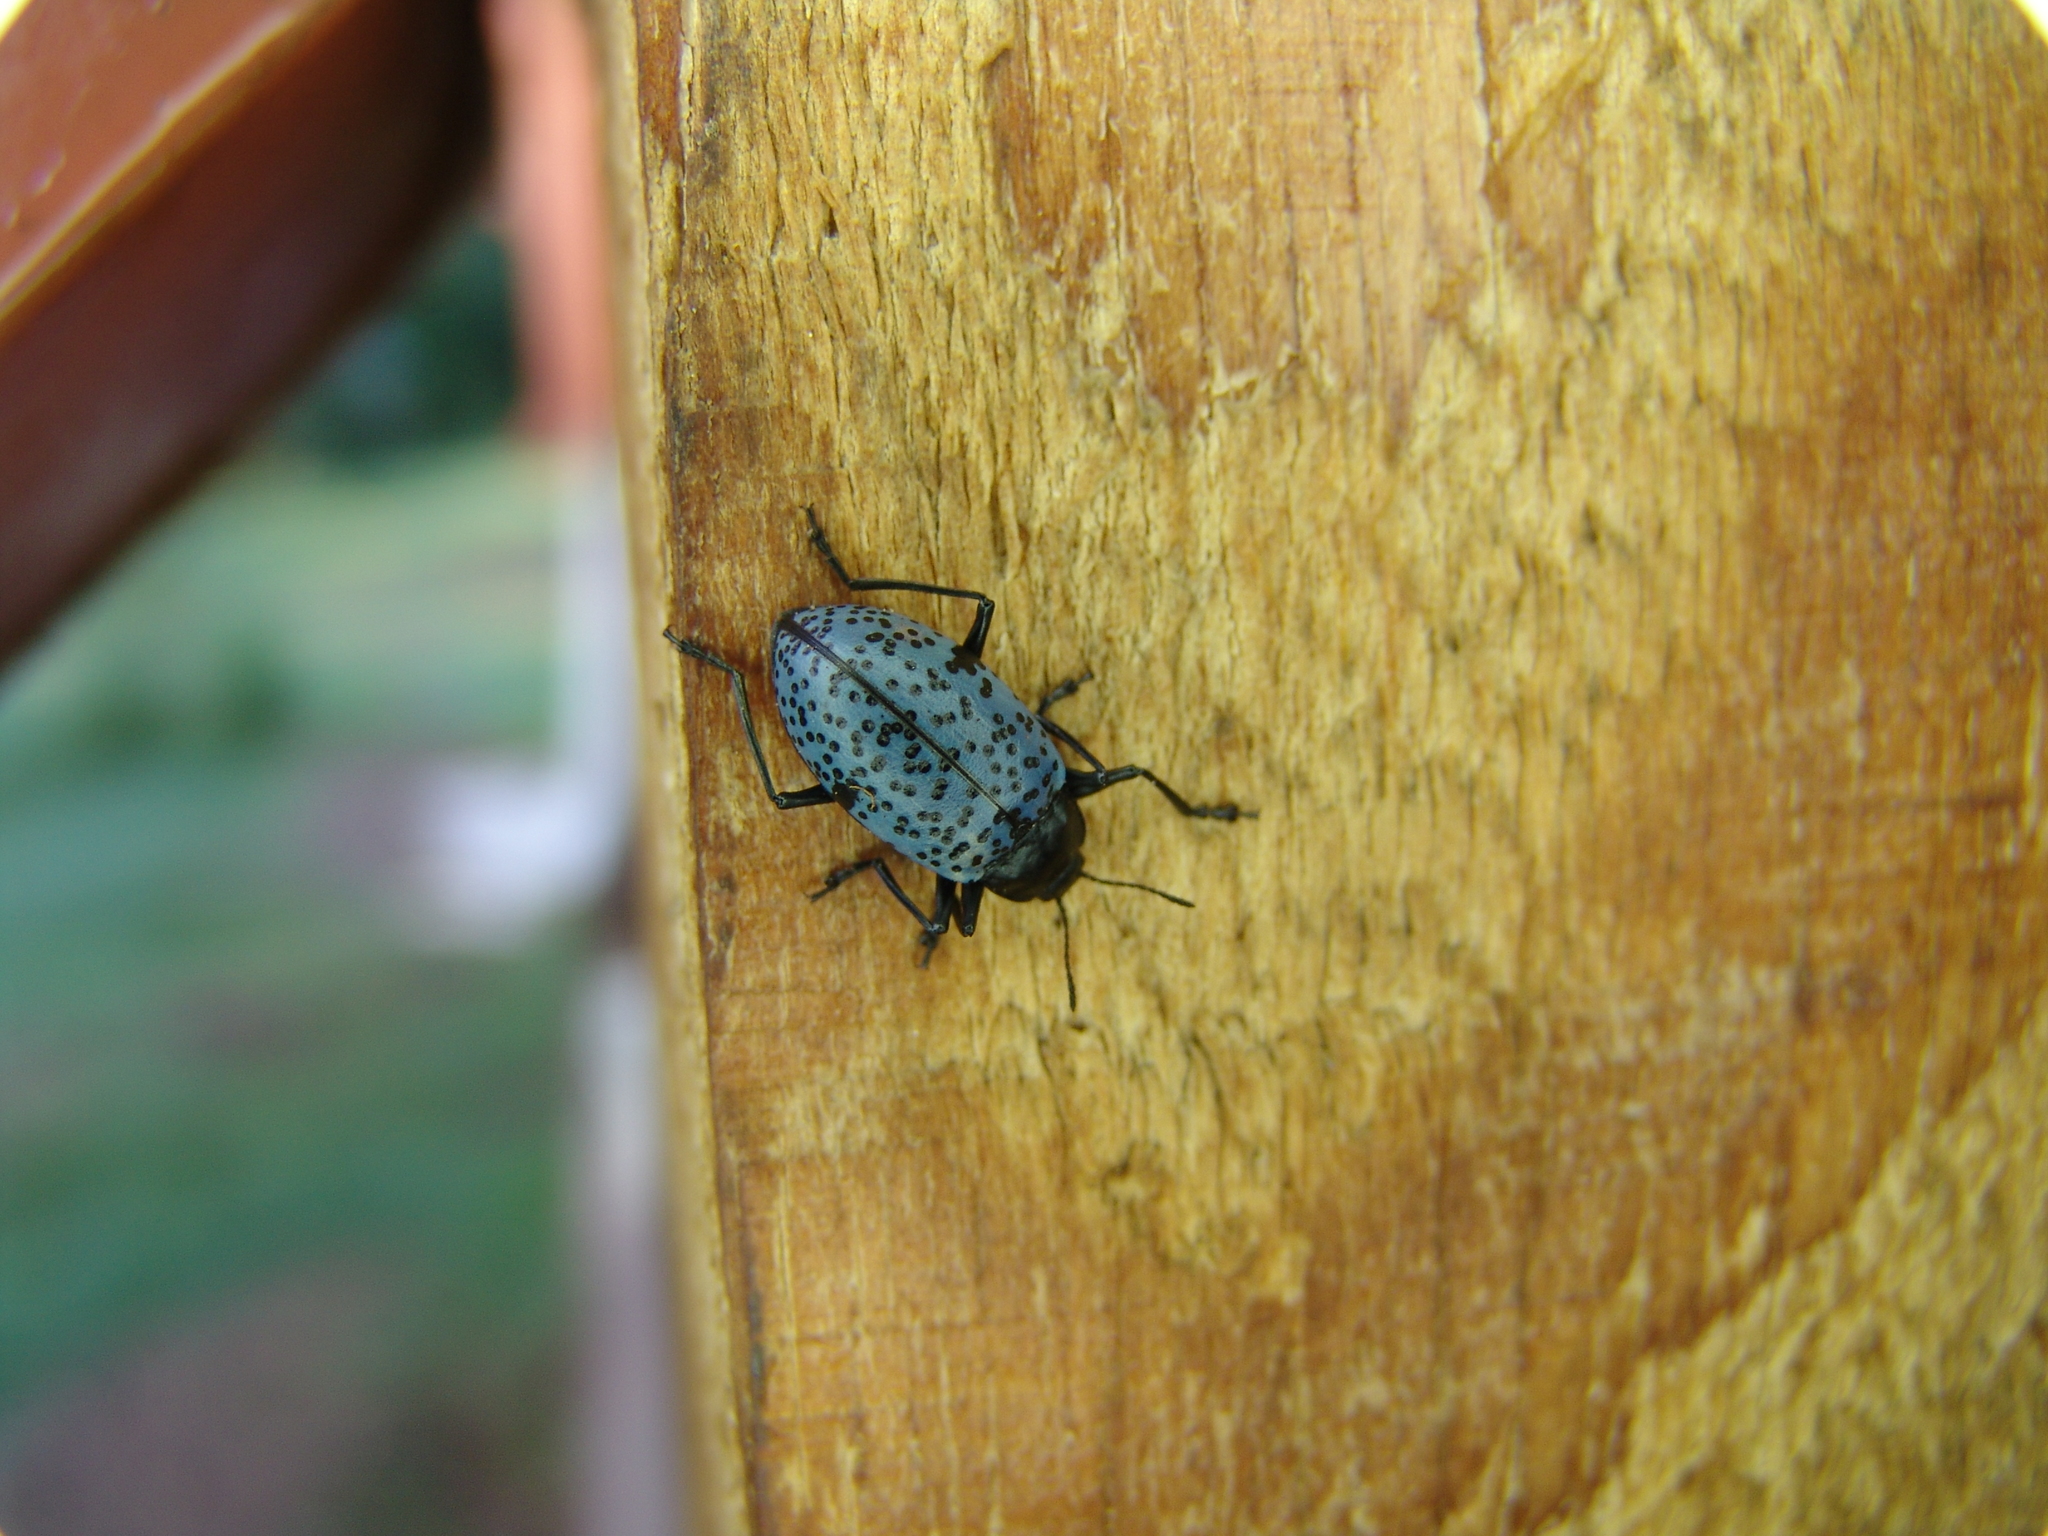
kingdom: Animalia
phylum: Arthropoda
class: Insecta
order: Coleoptera
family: Erotylidae
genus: Gibbifer
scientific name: Gibbifer californicus
